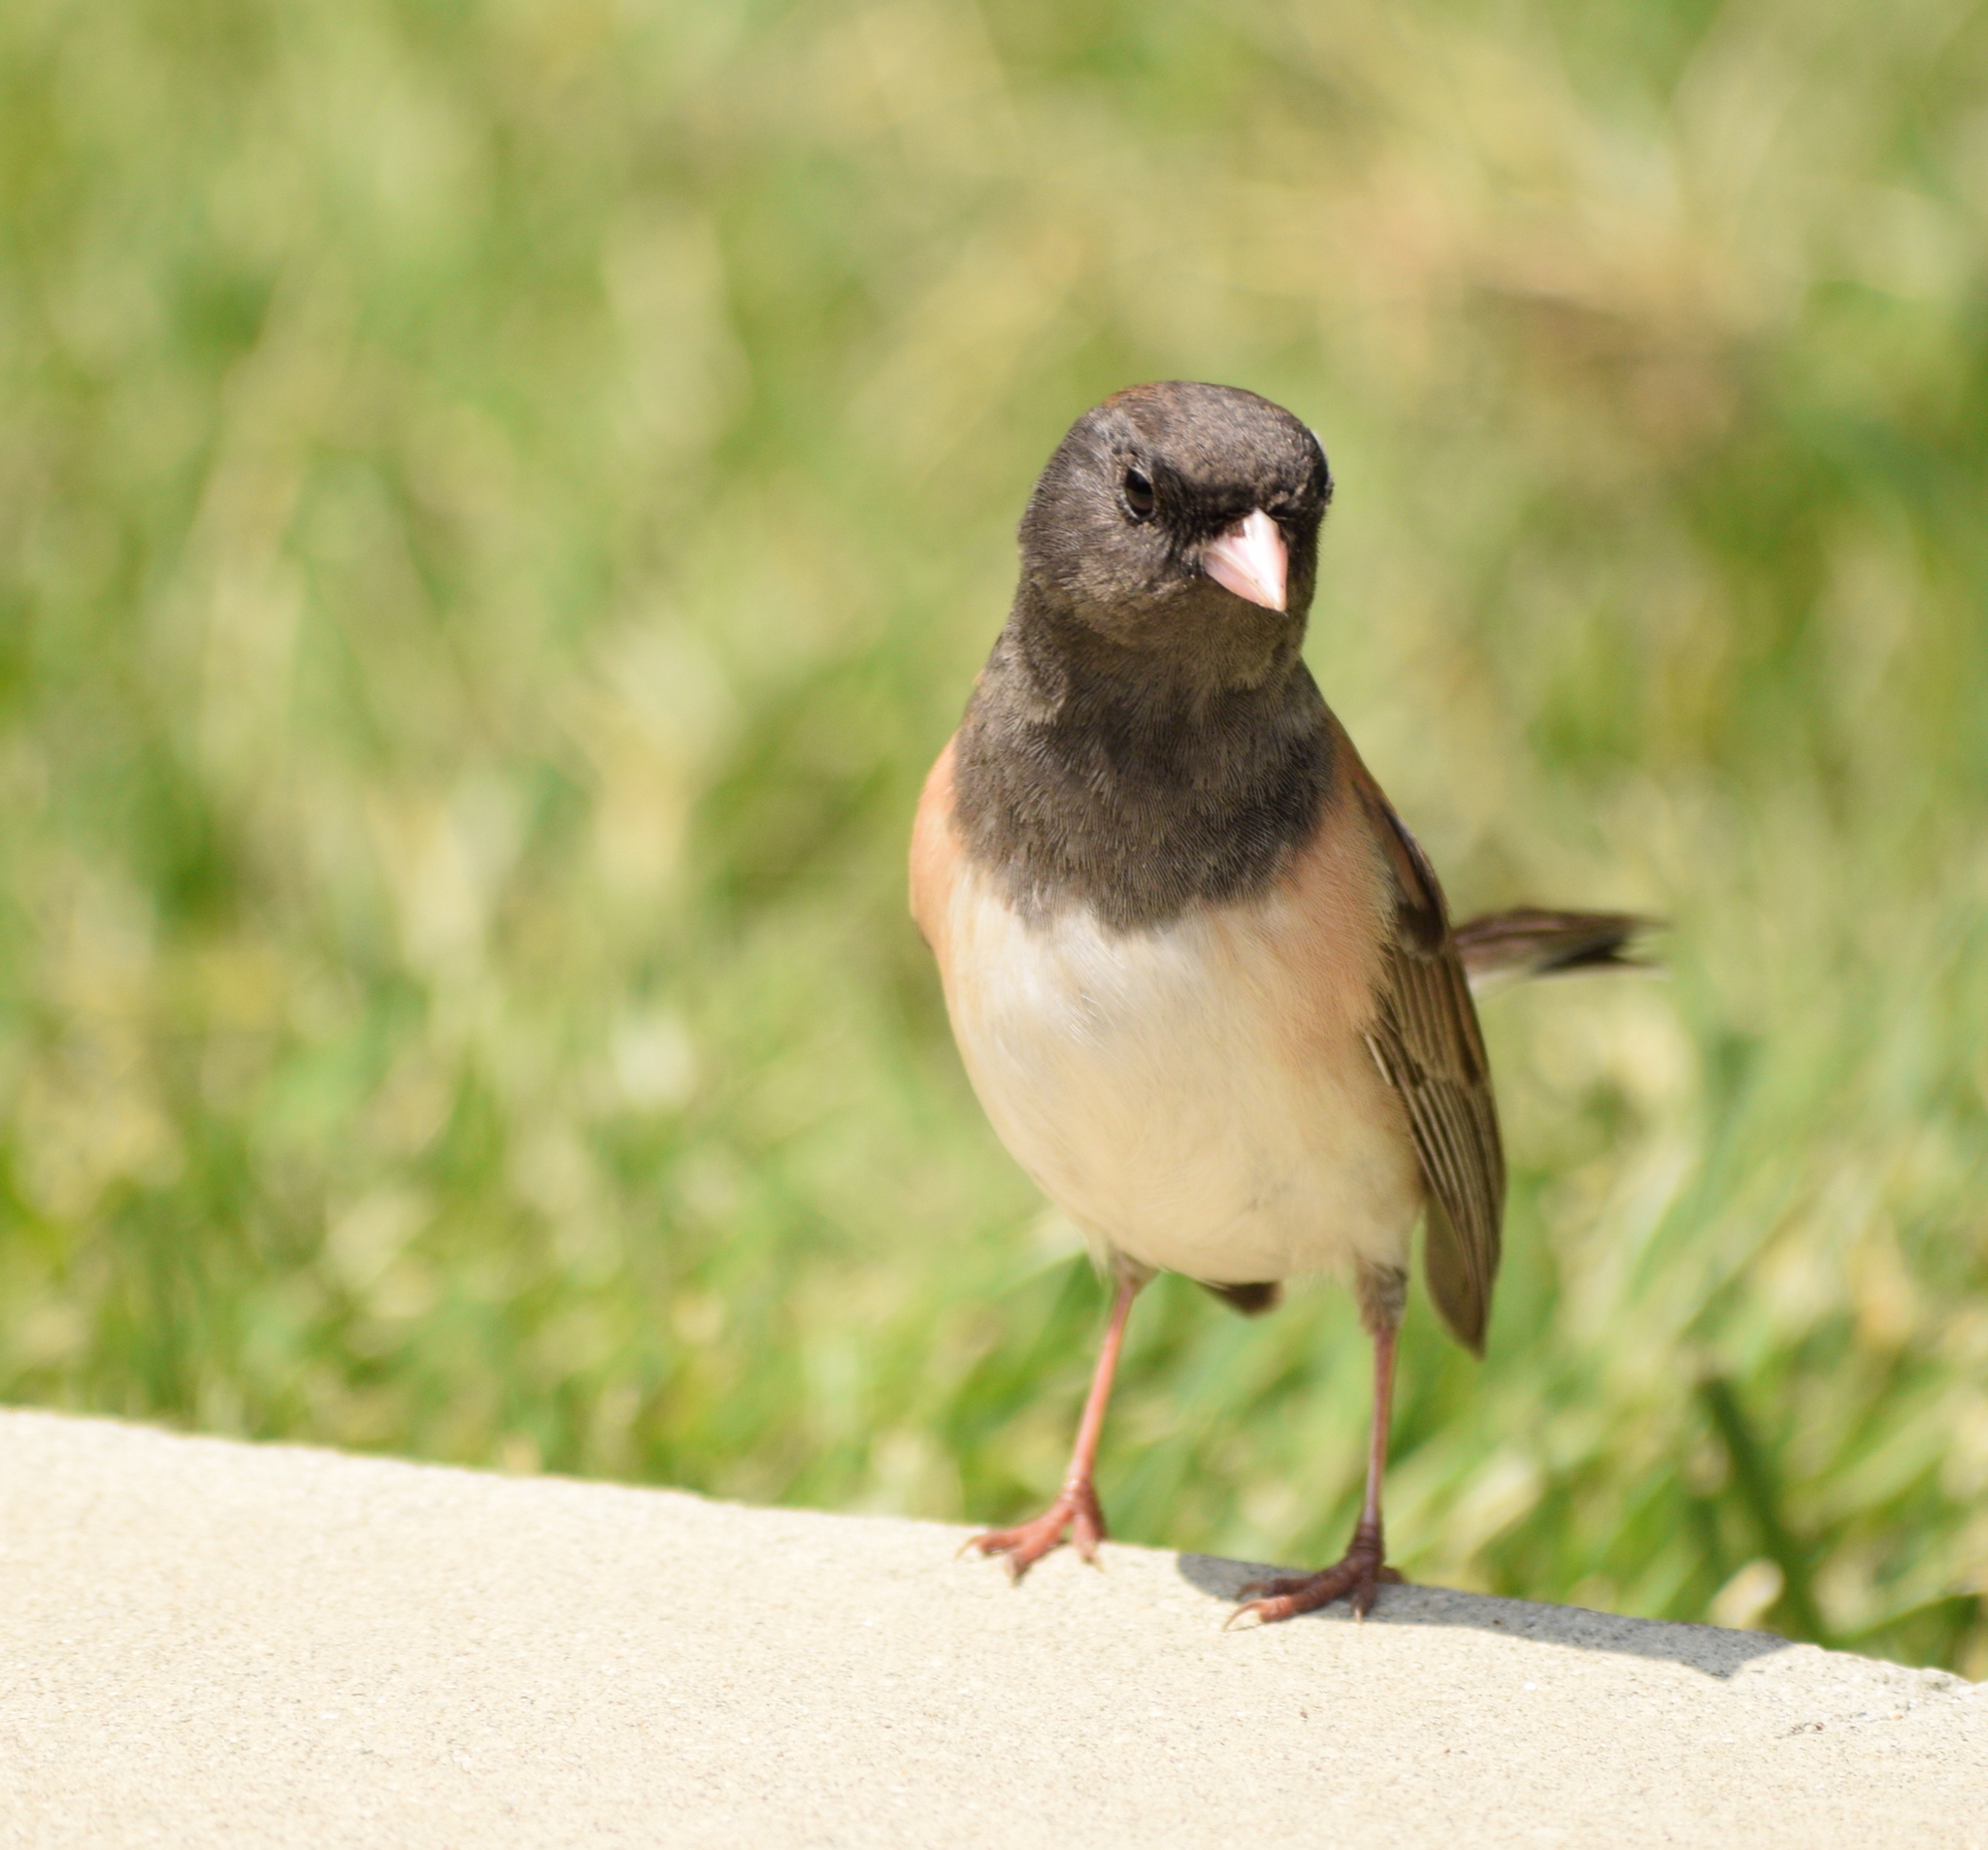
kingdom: Animalia
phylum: Chordata
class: Aves
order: Passeriformes
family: Passerellidae
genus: Junco
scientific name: Junco hyemalis
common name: Dark-eyed junco
